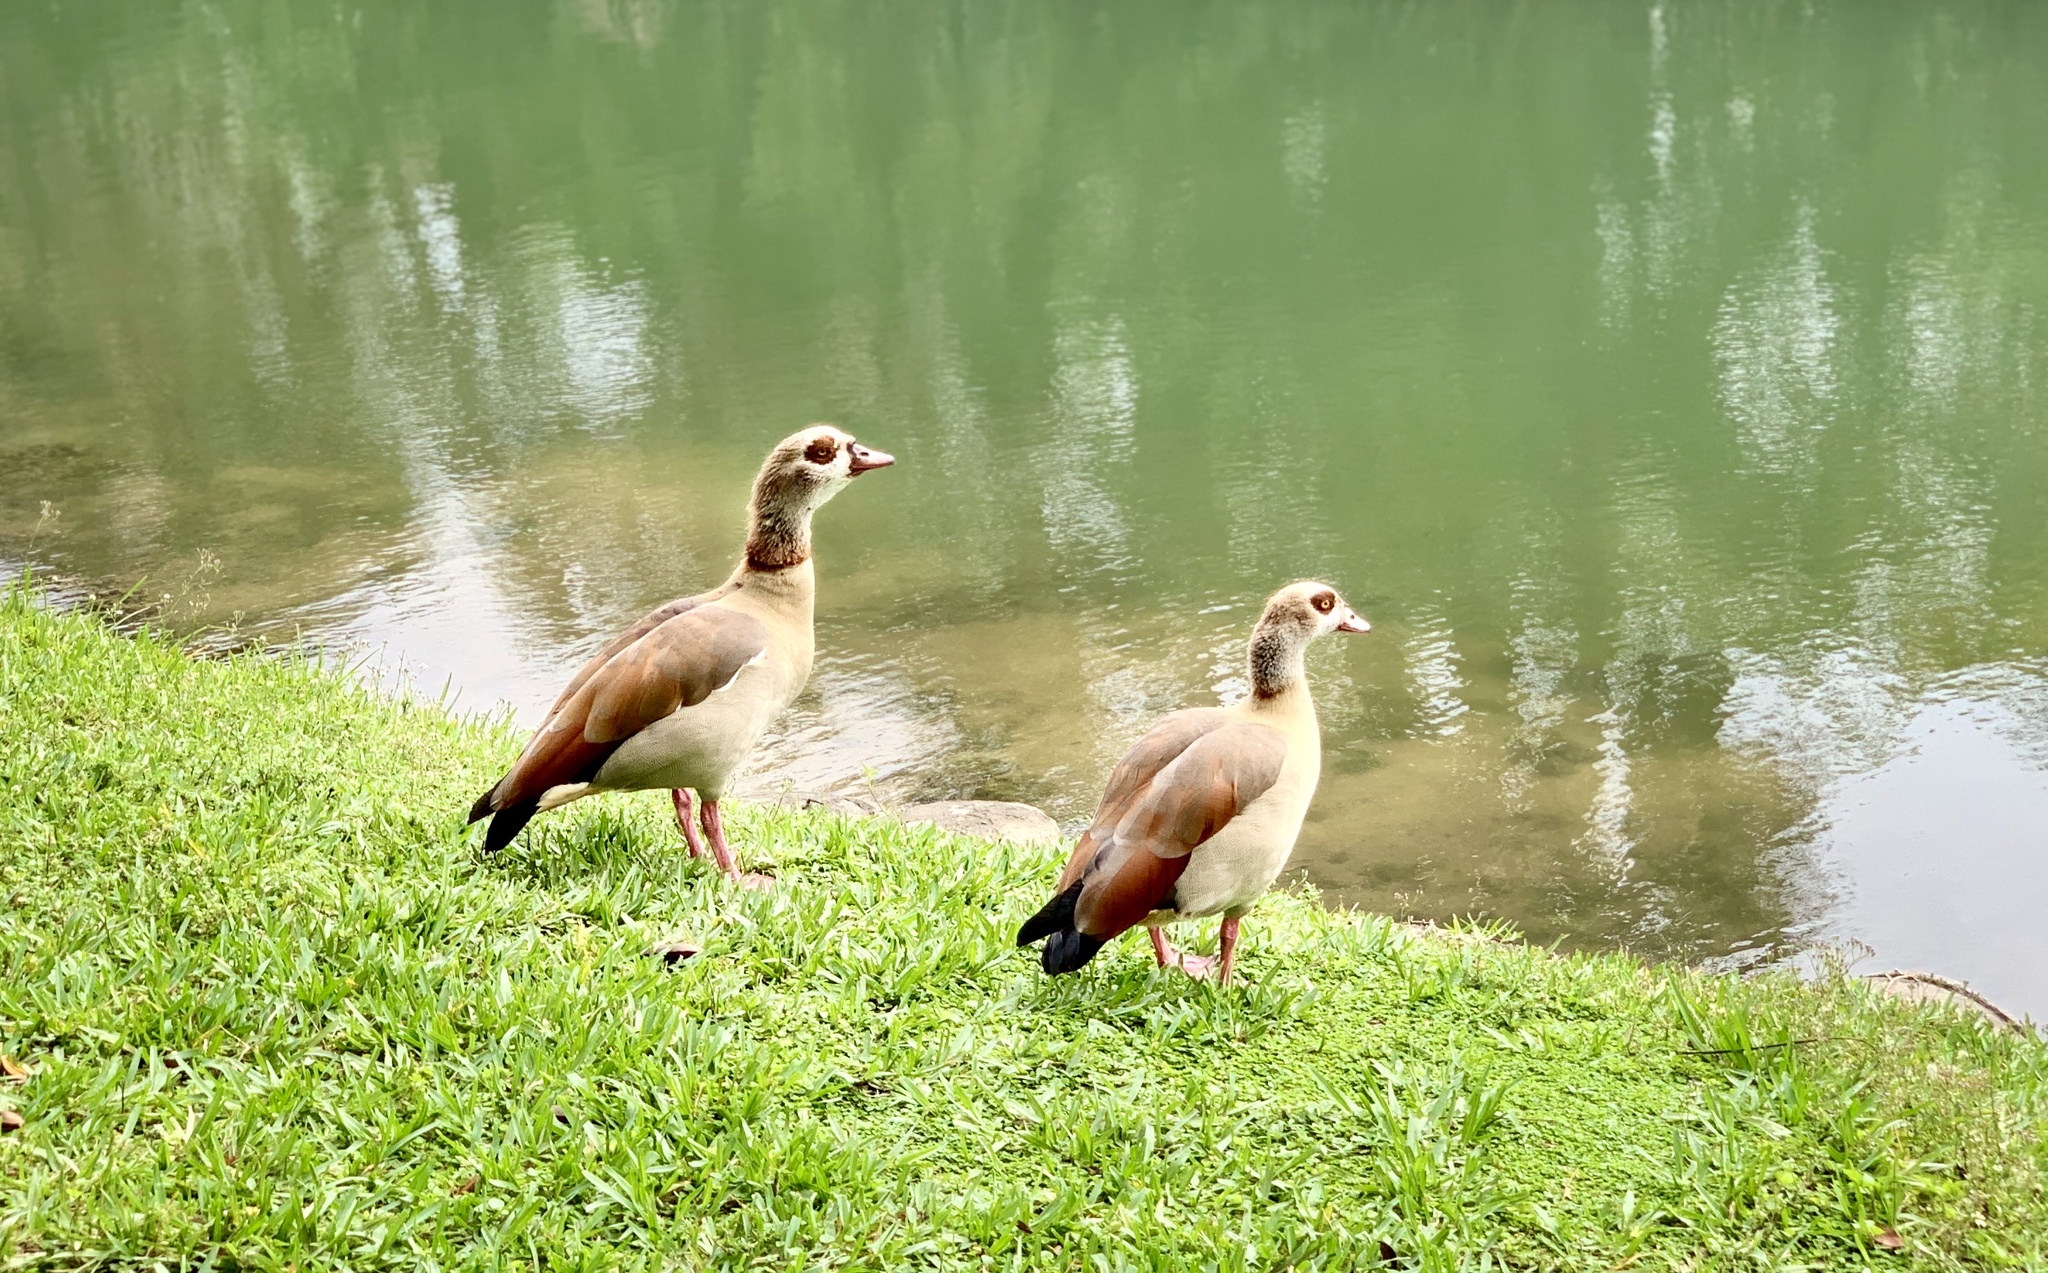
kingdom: Animalia
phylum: Chordata
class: Aves
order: Anseriformes
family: Anatidae
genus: Alopochen
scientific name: Alopochen aegyptiaca
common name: Egyptian goose
